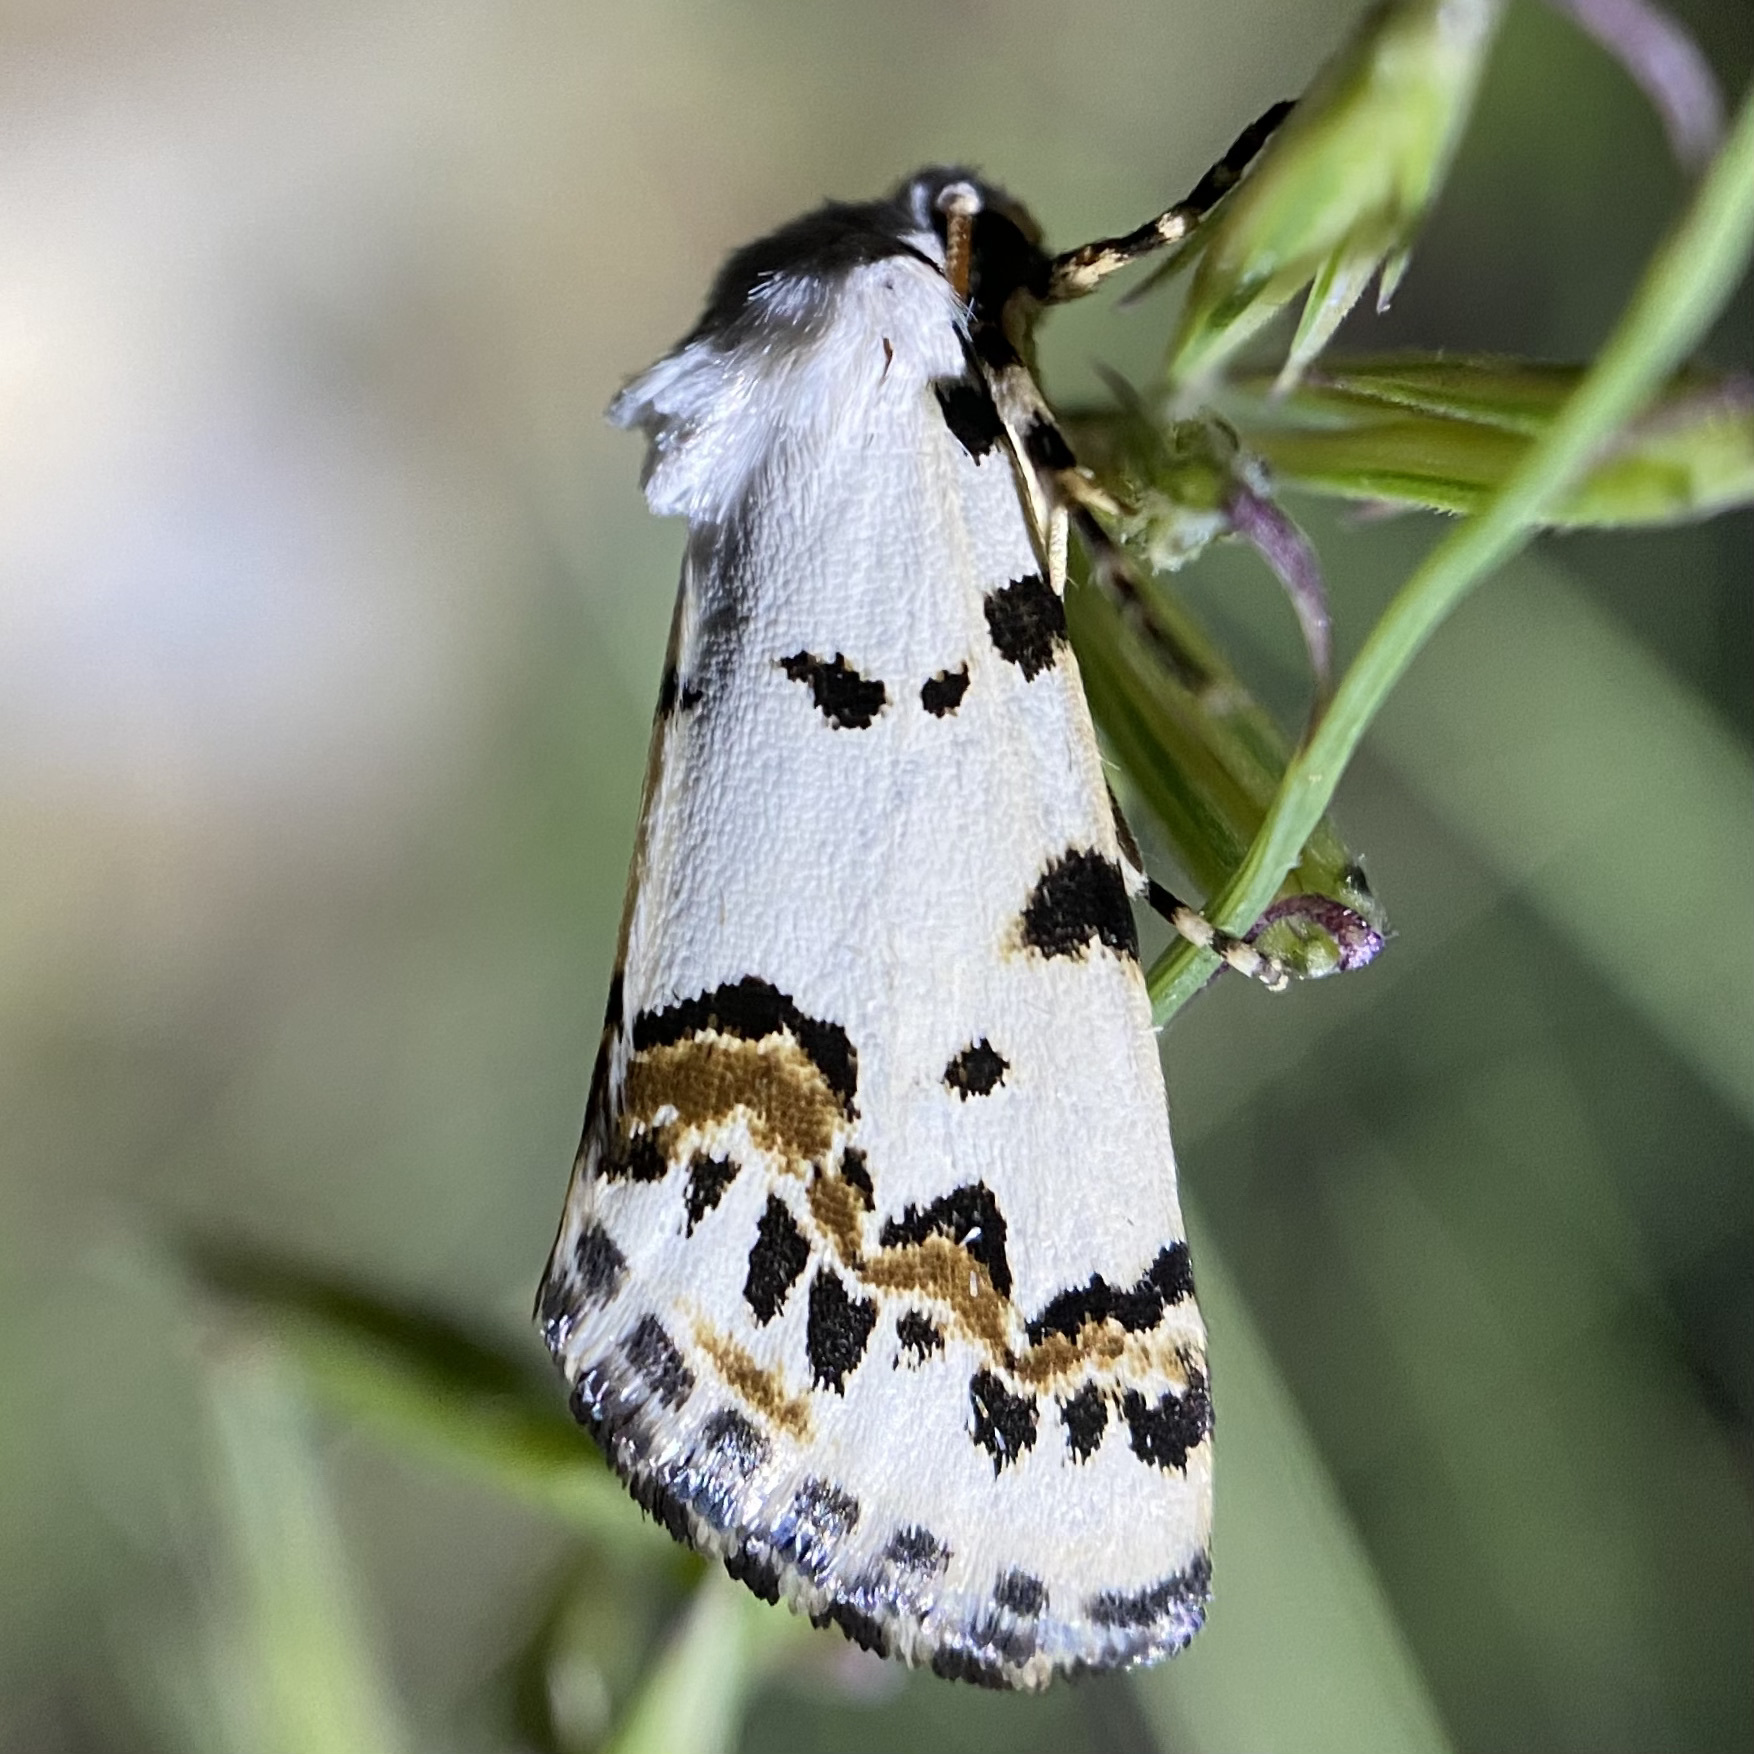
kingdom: Animalia
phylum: Arthropoda
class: Insecta
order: Lepidoptera
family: Noctuidae
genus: Grotella
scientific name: Grotella tricolor
